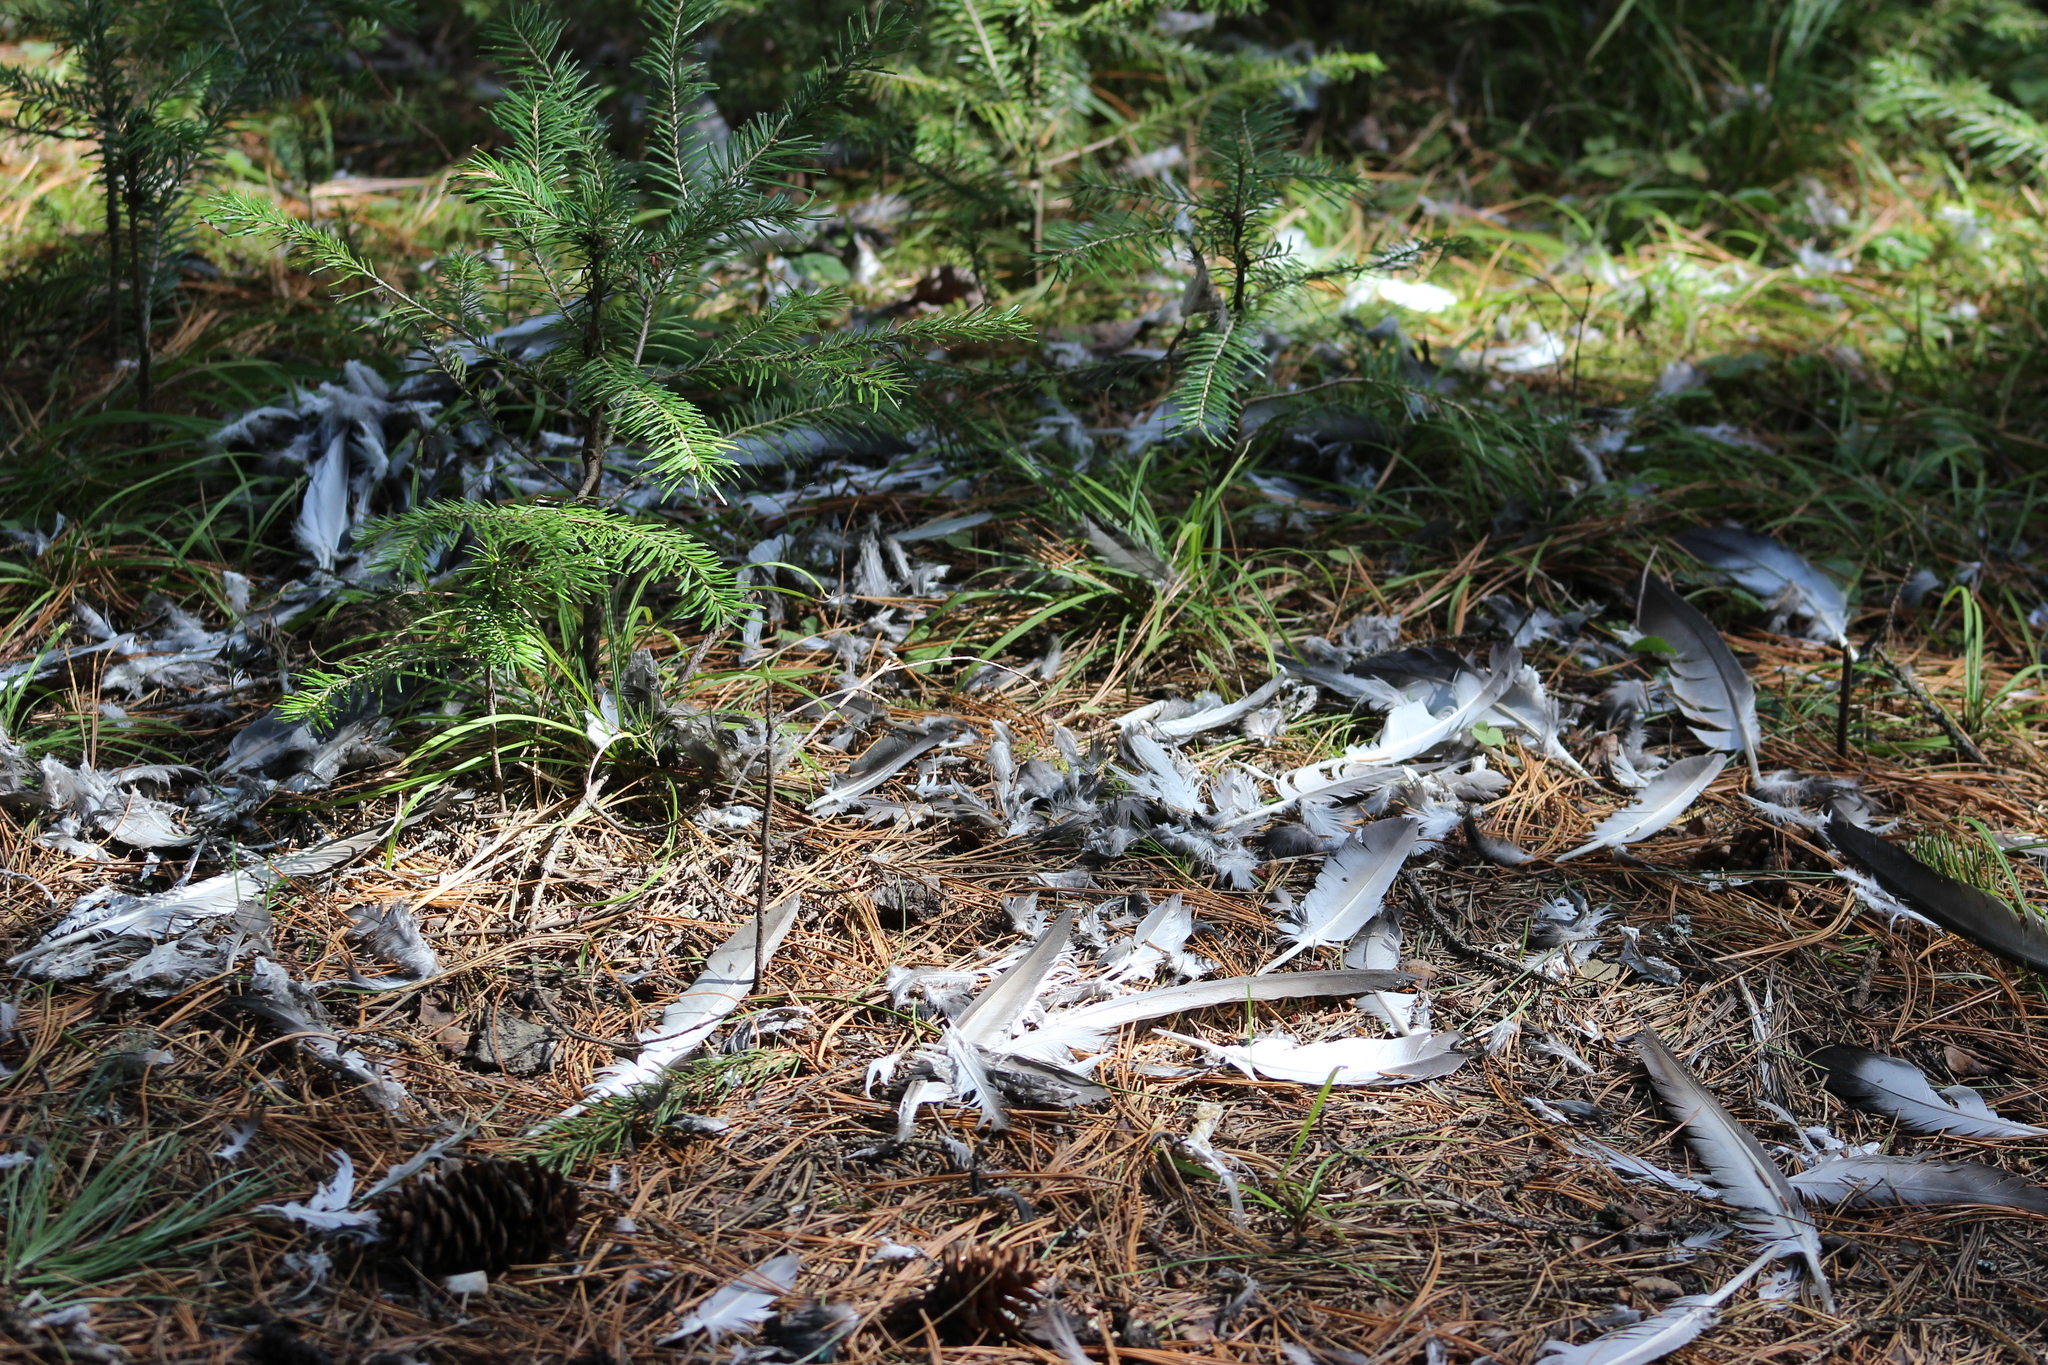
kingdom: Animalia
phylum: Chordata
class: Aves
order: Columbiformes
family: Columbidae
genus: Columba
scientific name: Columba livia
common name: Rock pigeon
